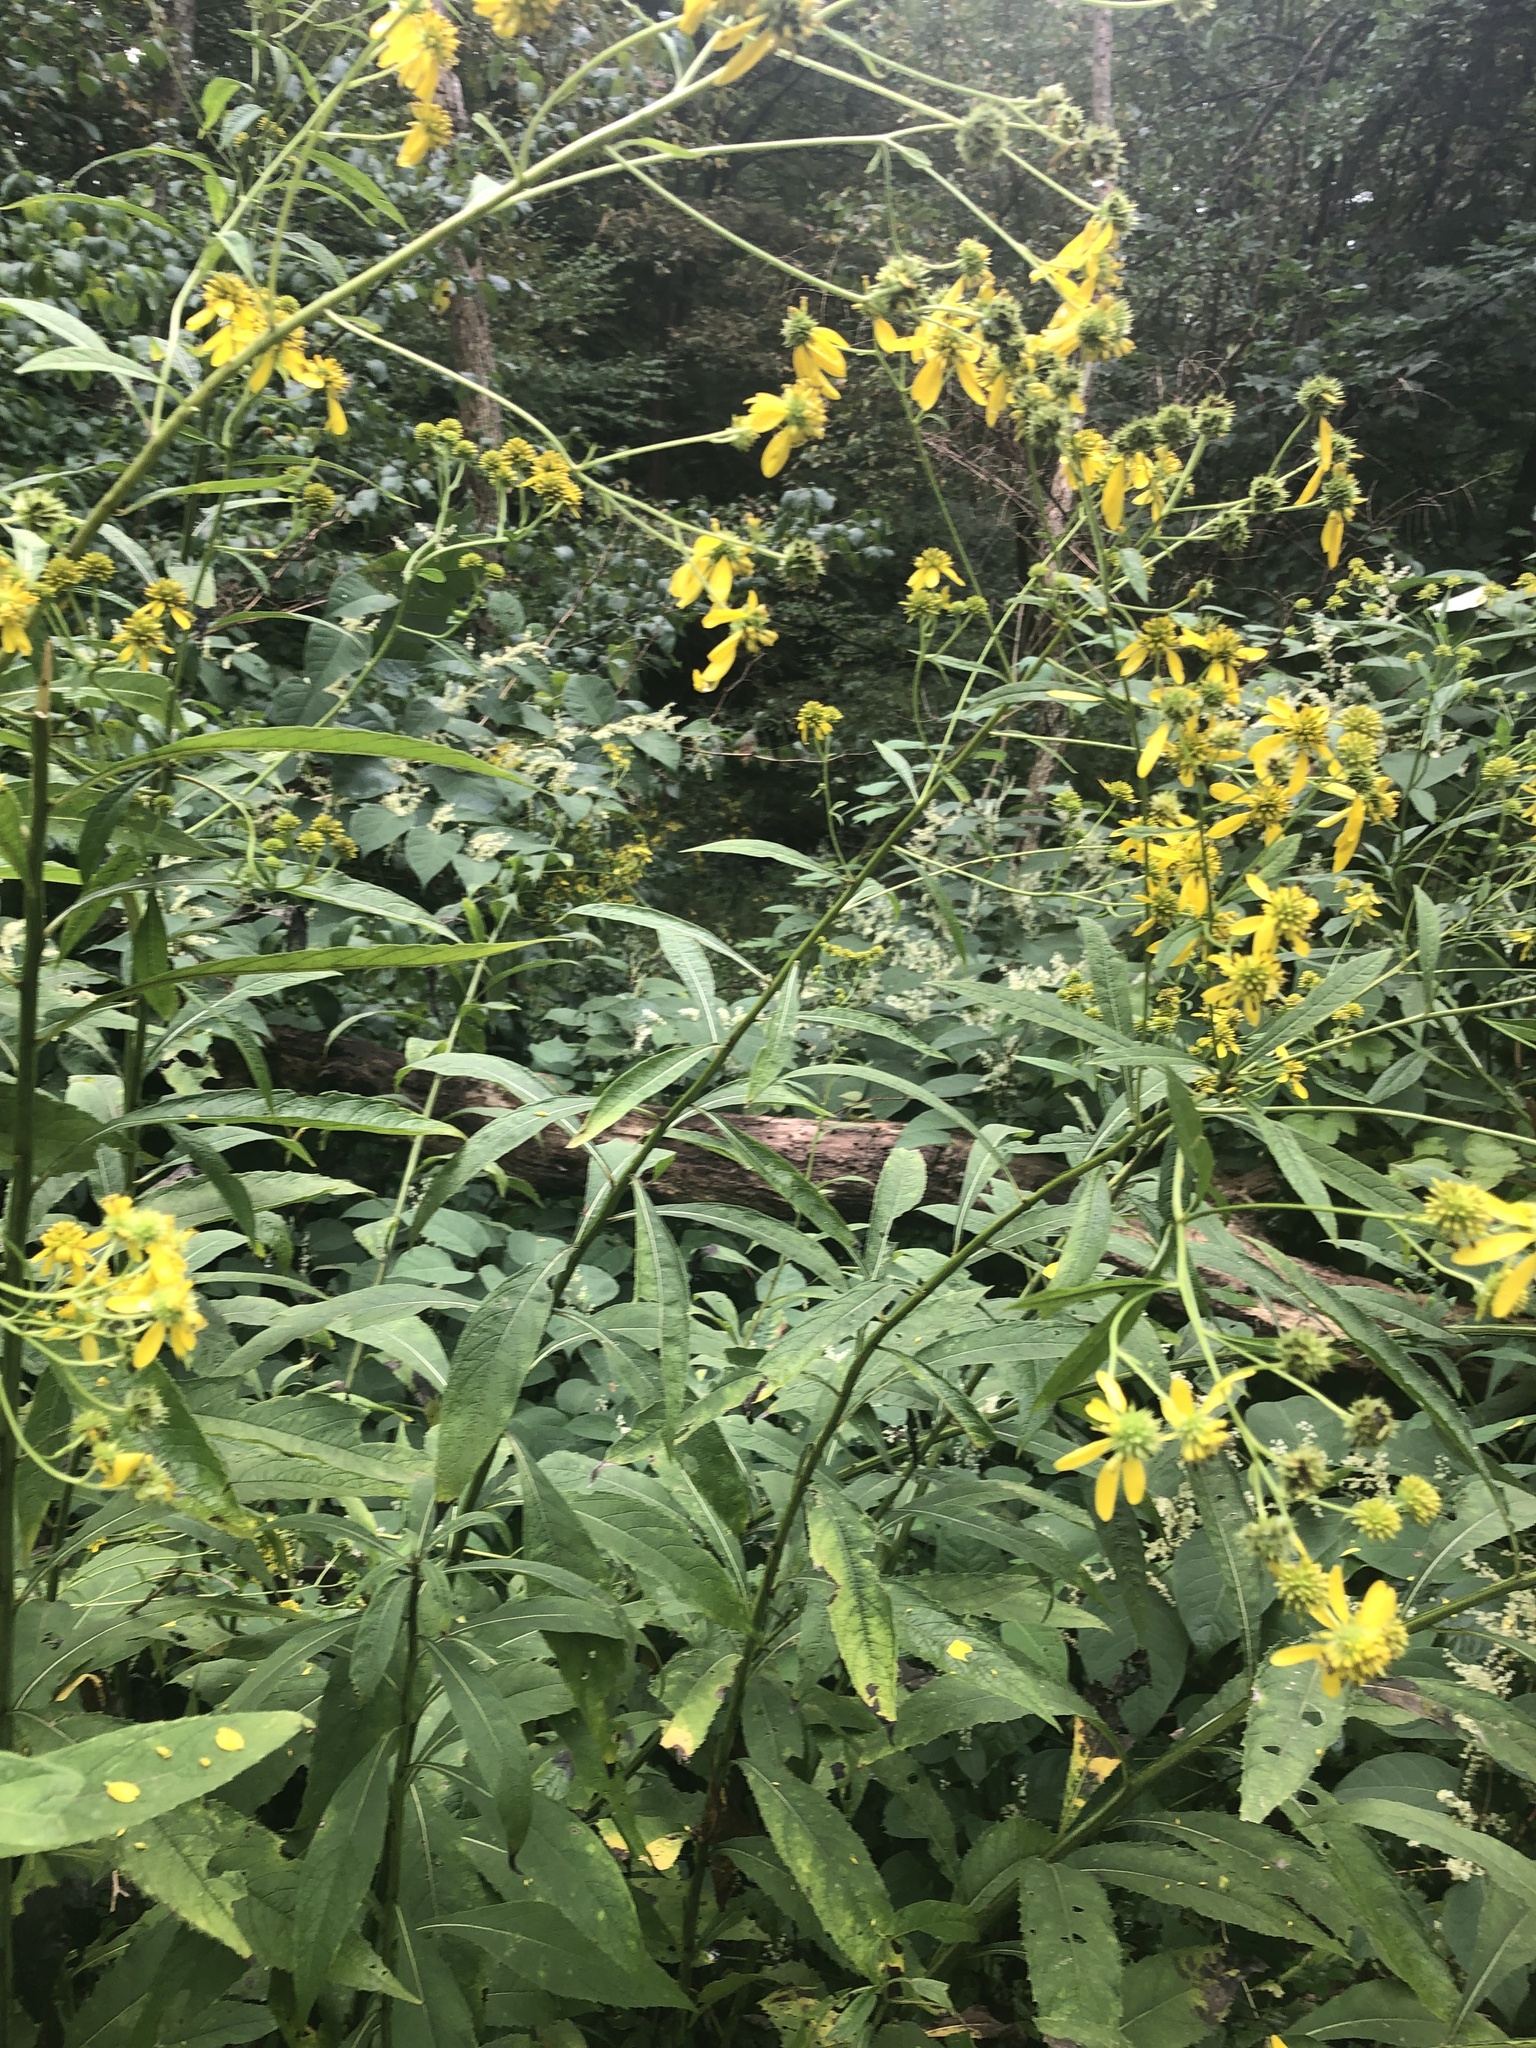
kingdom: Plantae
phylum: Tracheophyta
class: Magnoliopsida
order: Asterales
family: Asteraceae
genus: Verbesina
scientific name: Verbesina alternifolia
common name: Wingstem
